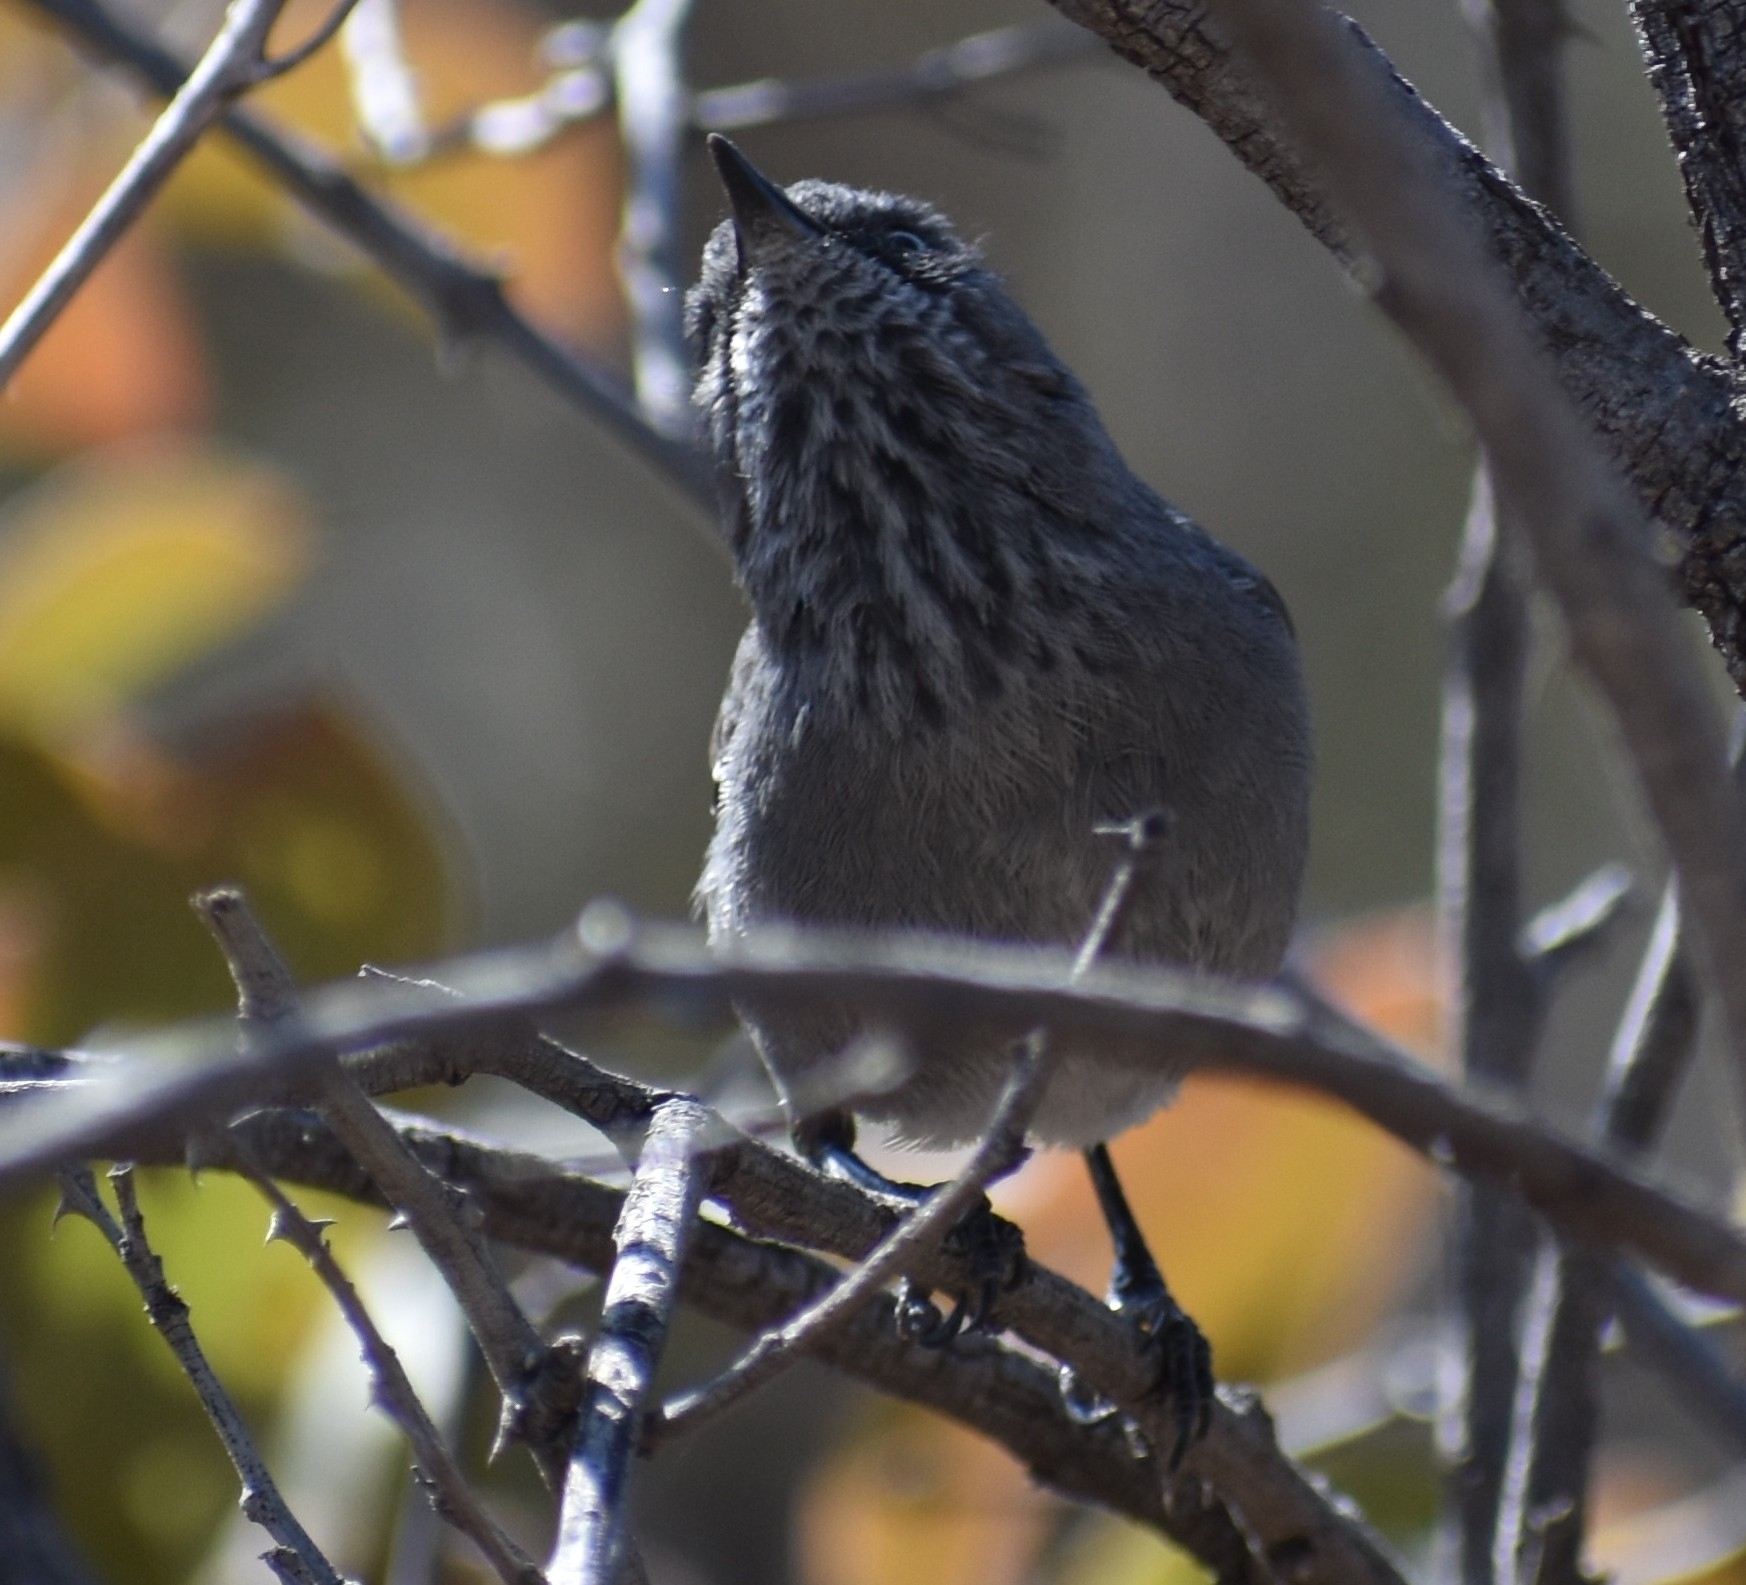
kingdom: Animalia
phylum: Chordata
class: Aves
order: Passeriformes
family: Sylviidae
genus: Curruca
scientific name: Curruca subcoerulea
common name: Chestnut-vented warbler
